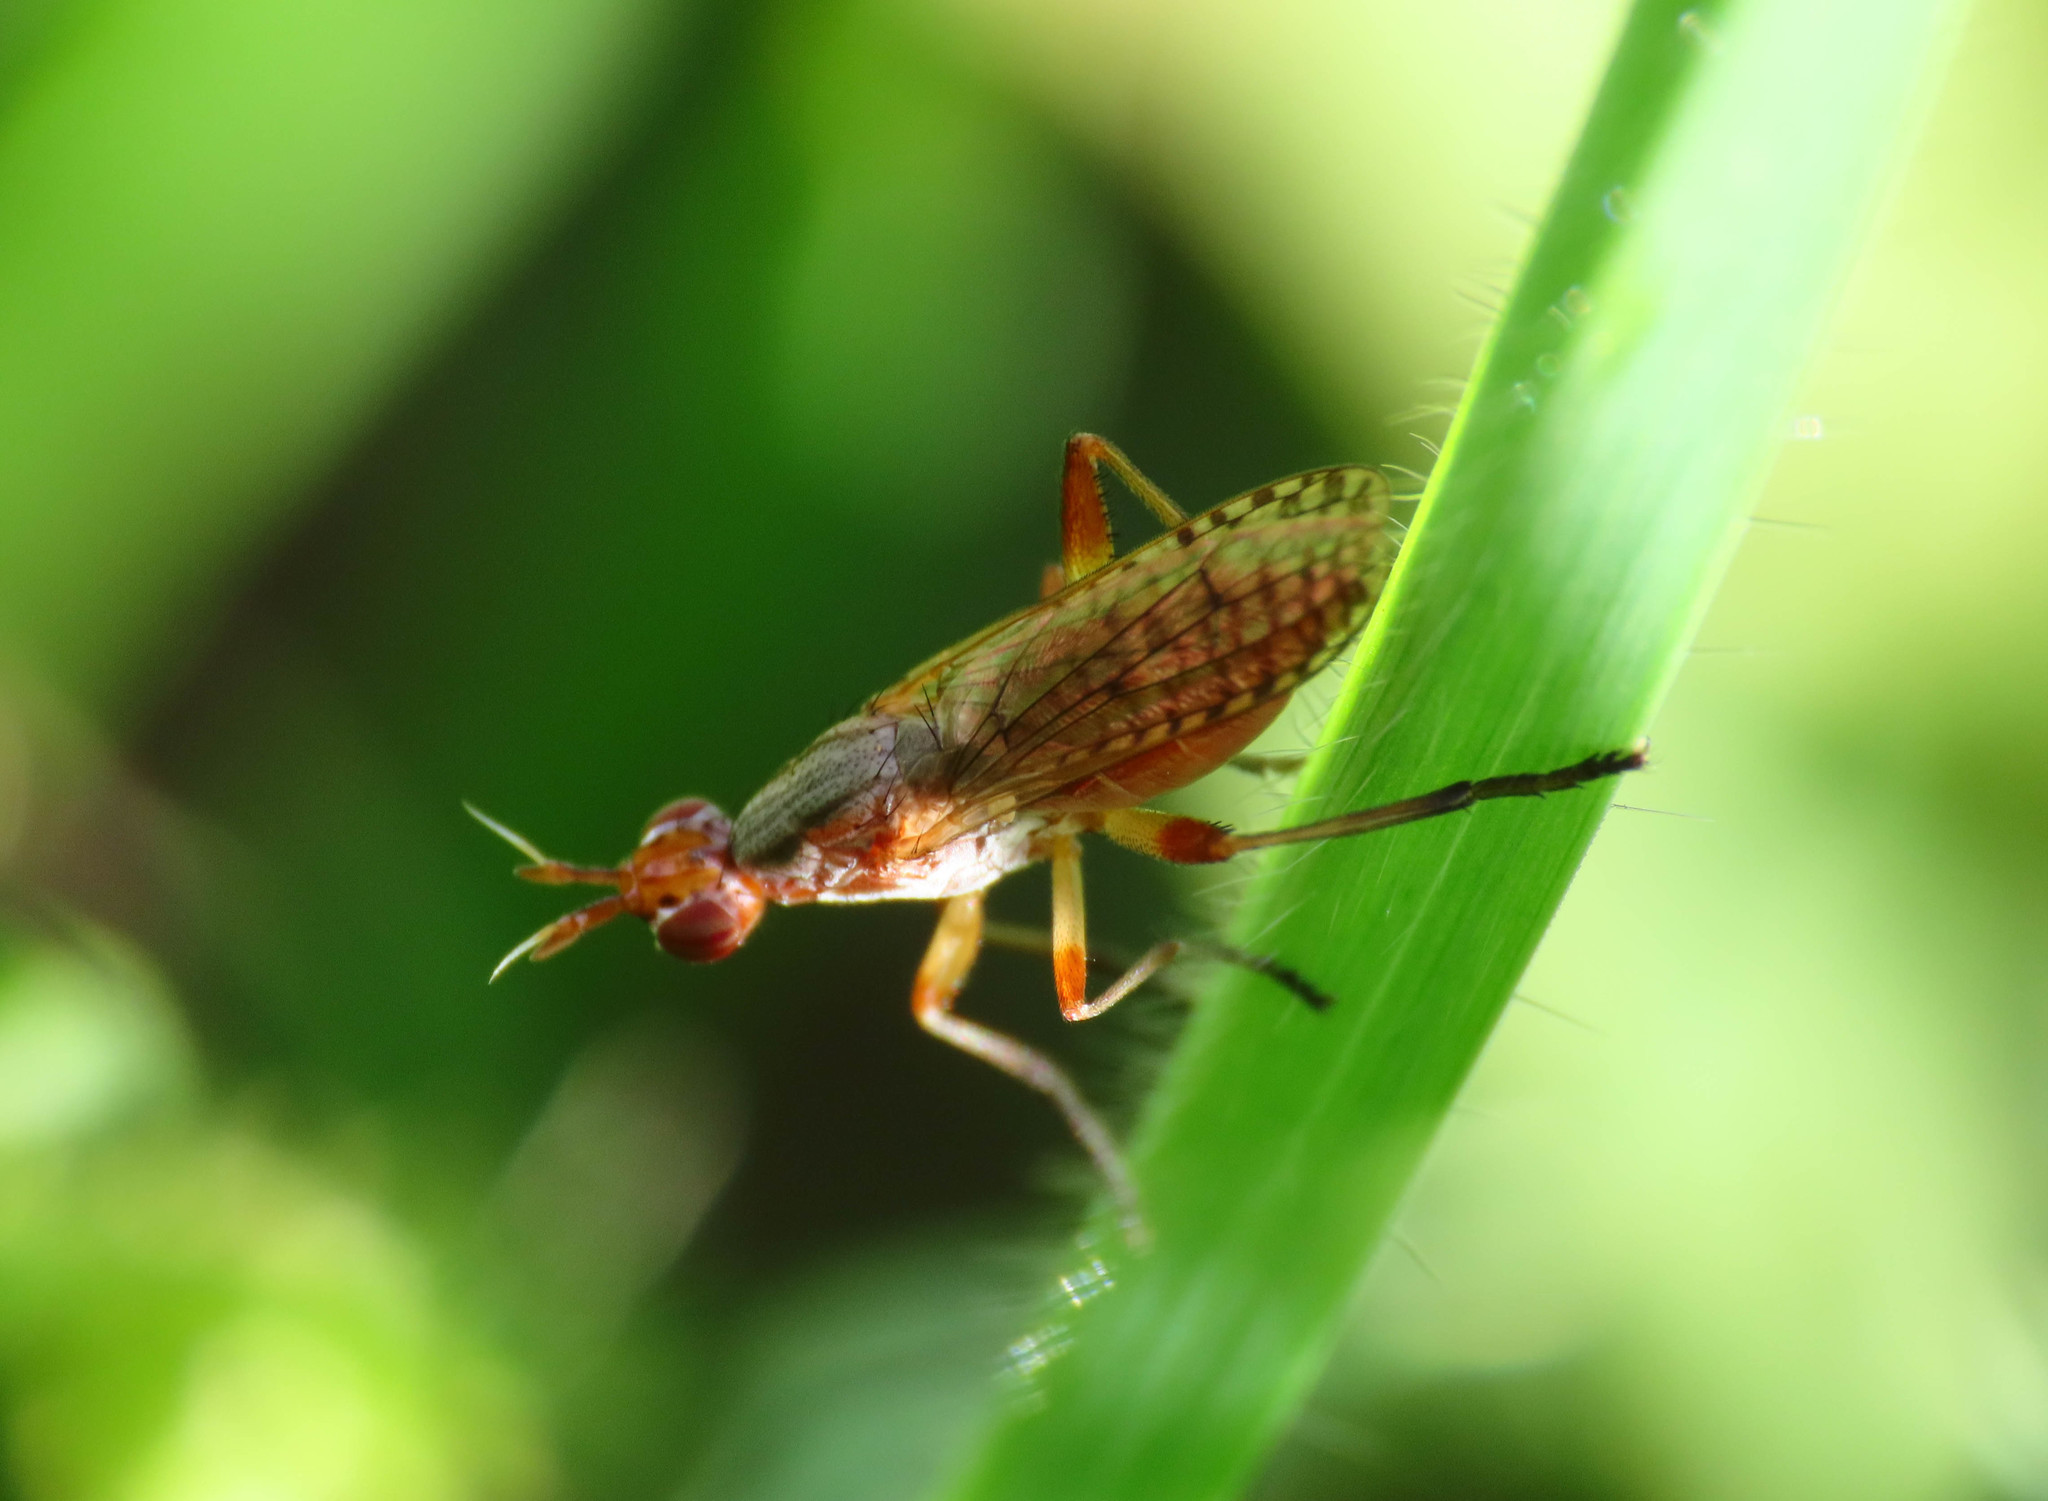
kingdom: Animalia
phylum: Arthropoda
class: Insecta
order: Diptera
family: Sciomyzidae
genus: Dichetophora
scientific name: Dichetophora obliterata
